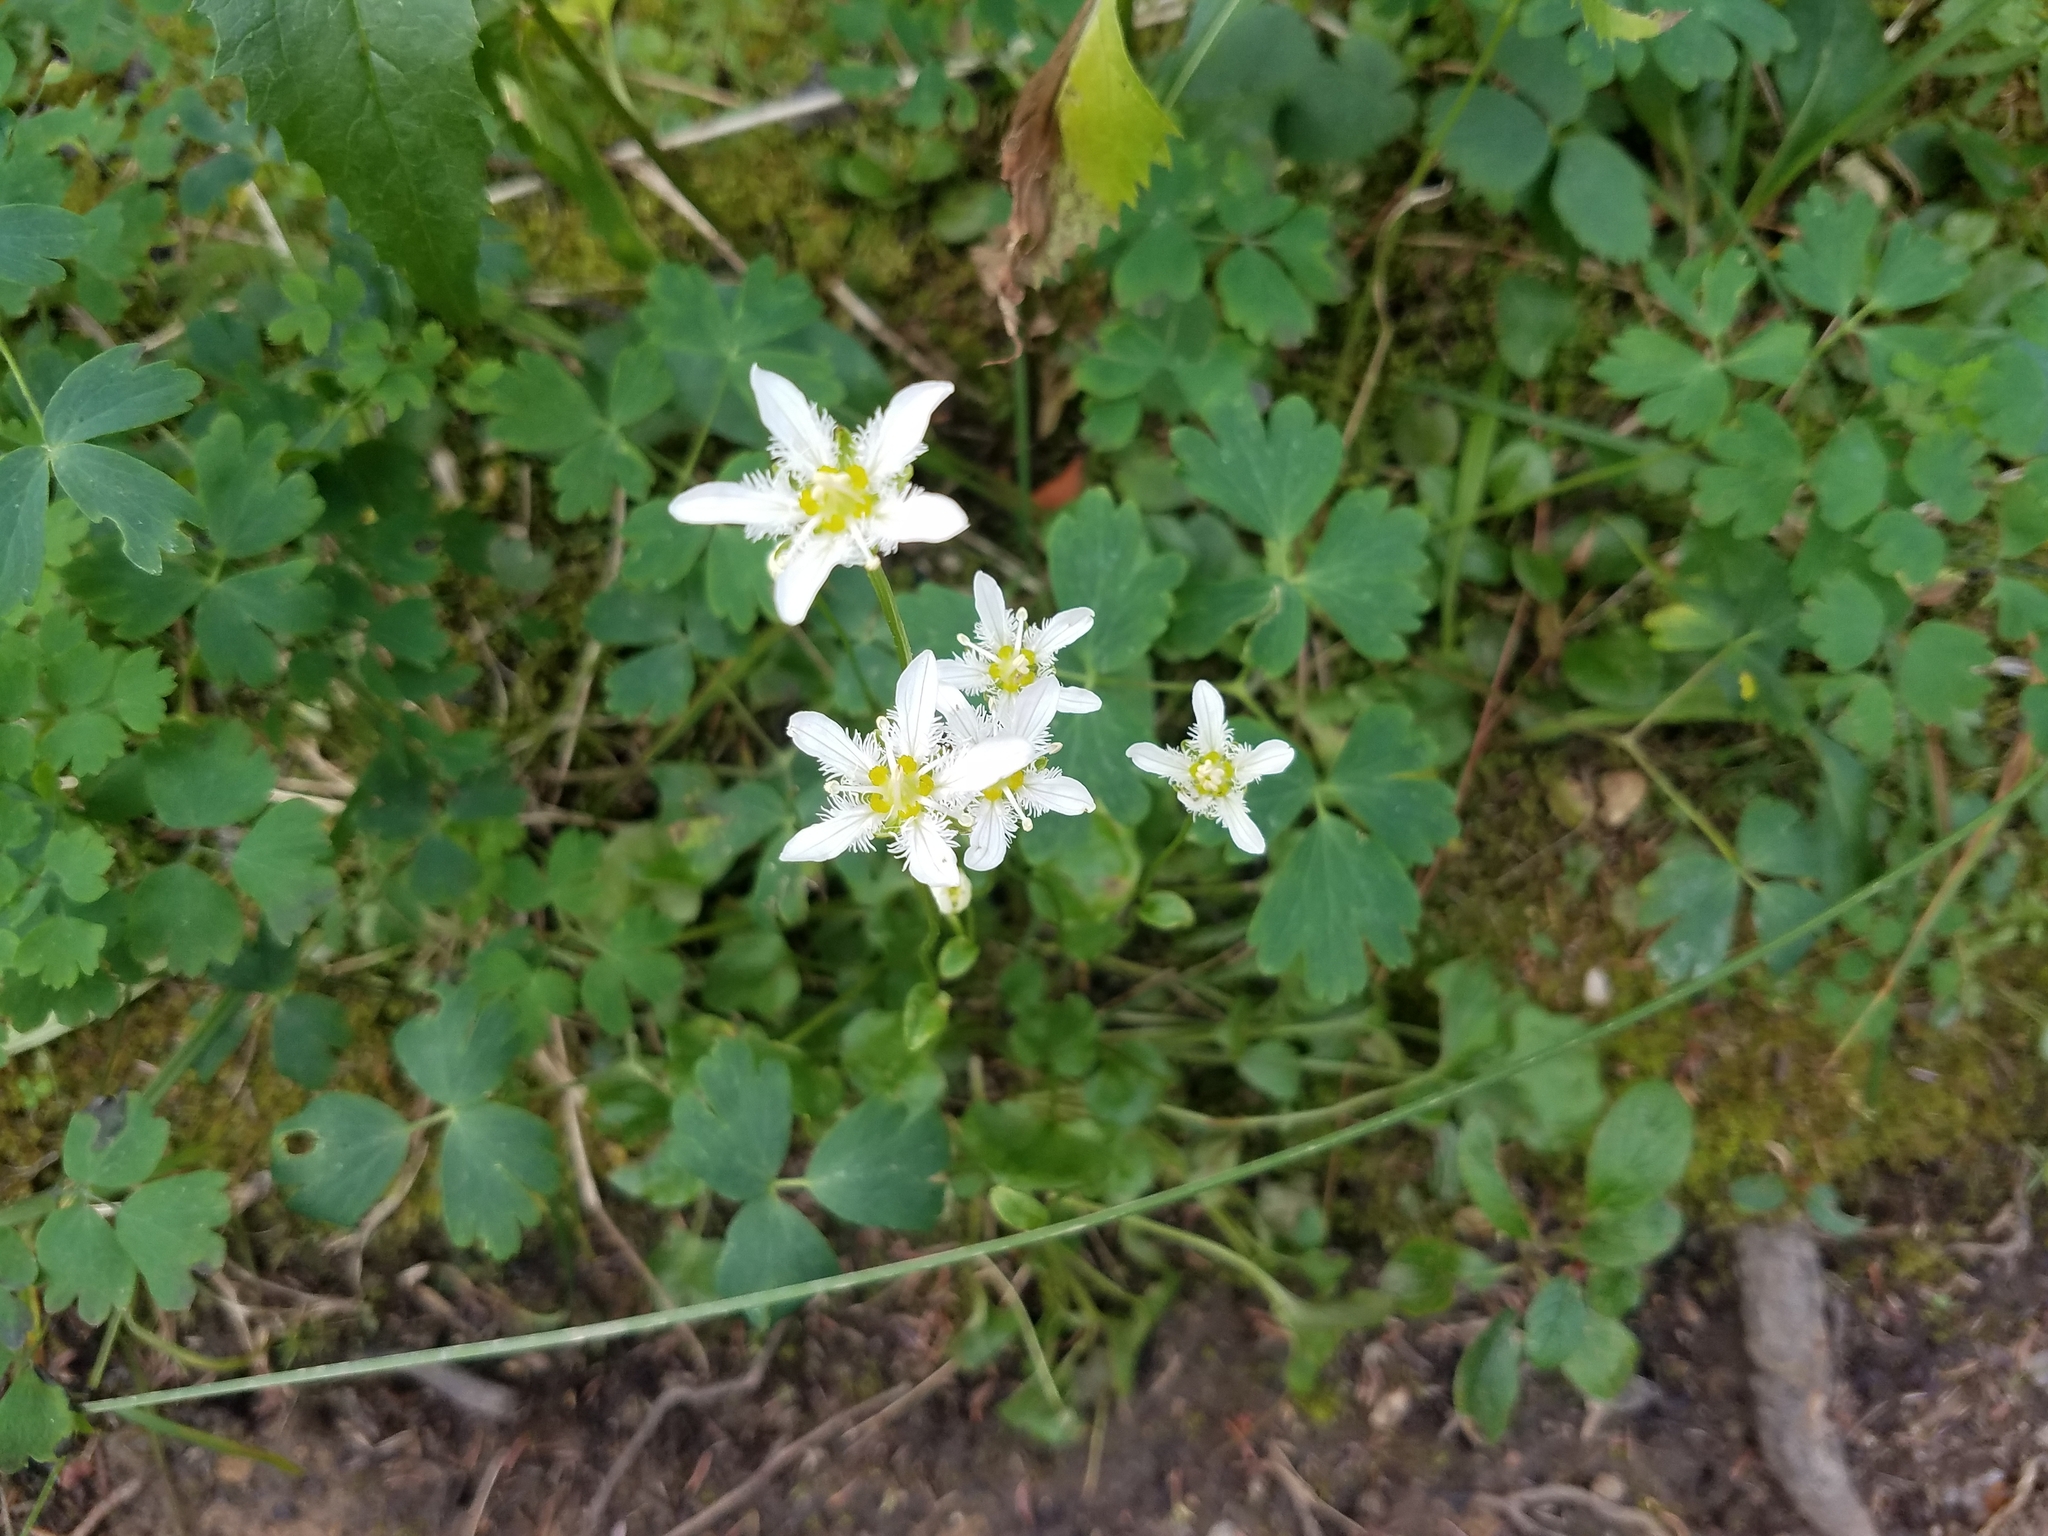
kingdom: Plantae
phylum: Tracheophyta
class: Magnoliopsida
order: Celastrales
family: Parnassiaceae
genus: Parnassia
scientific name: Parnassia fimbriata
